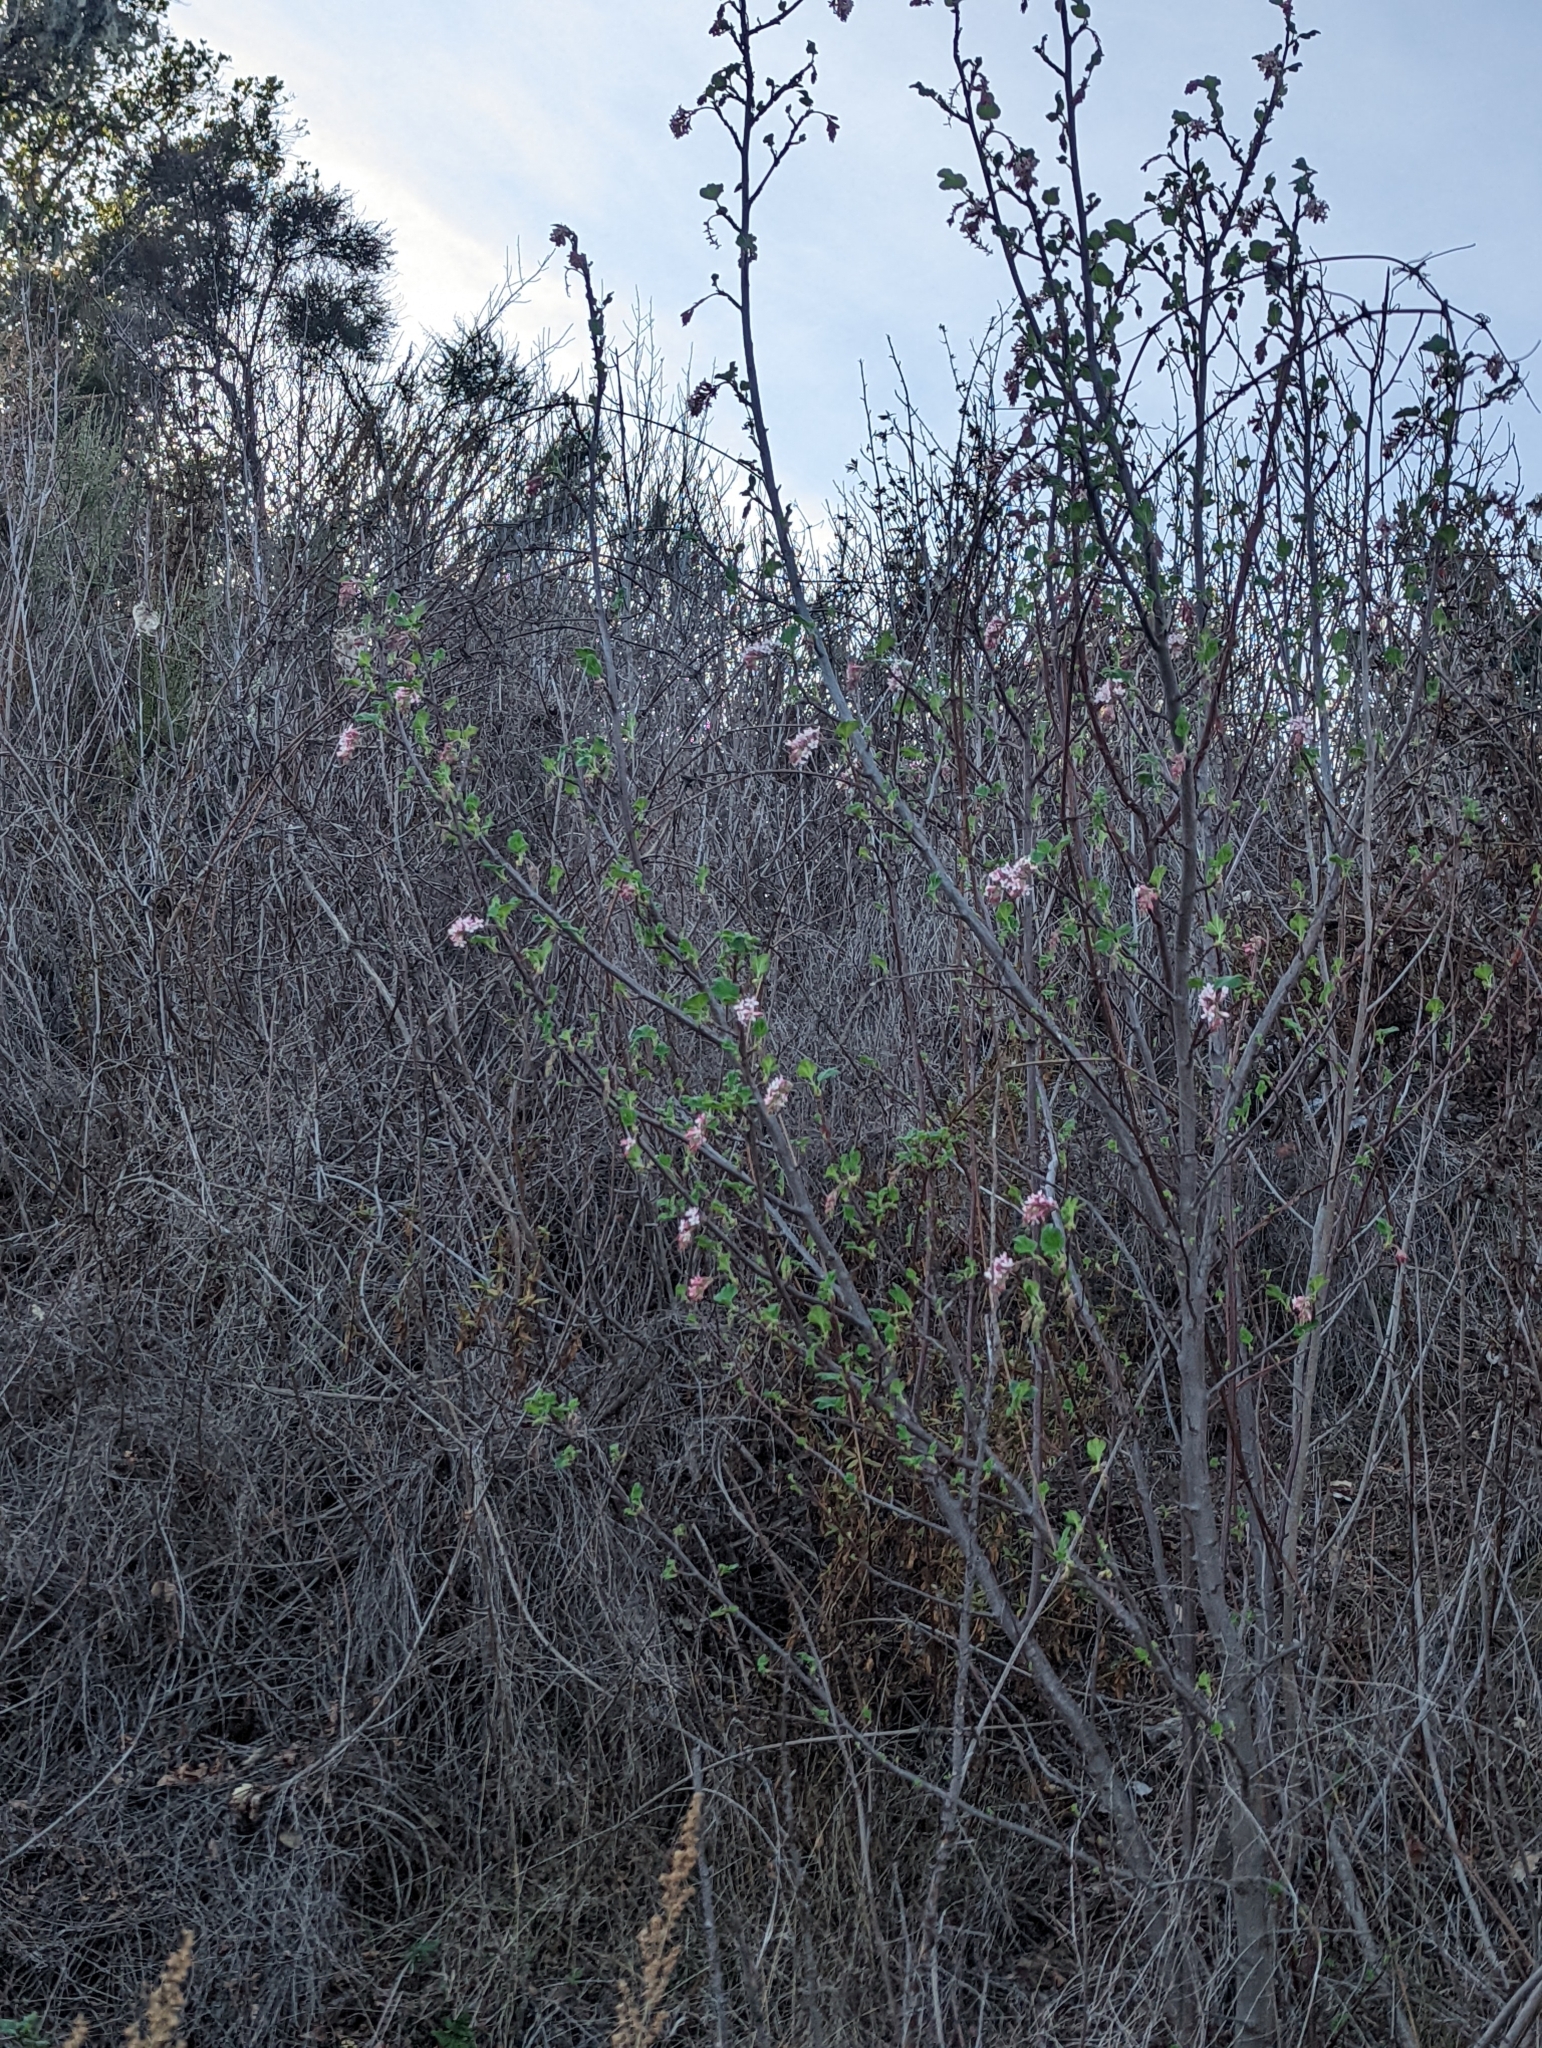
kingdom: Plantae
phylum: Tracheophyta
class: Magnoliopsida
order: Saxifragales
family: Grossulariaceae
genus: Ribes
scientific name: Ribes malvaceum
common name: Chaparral currant
